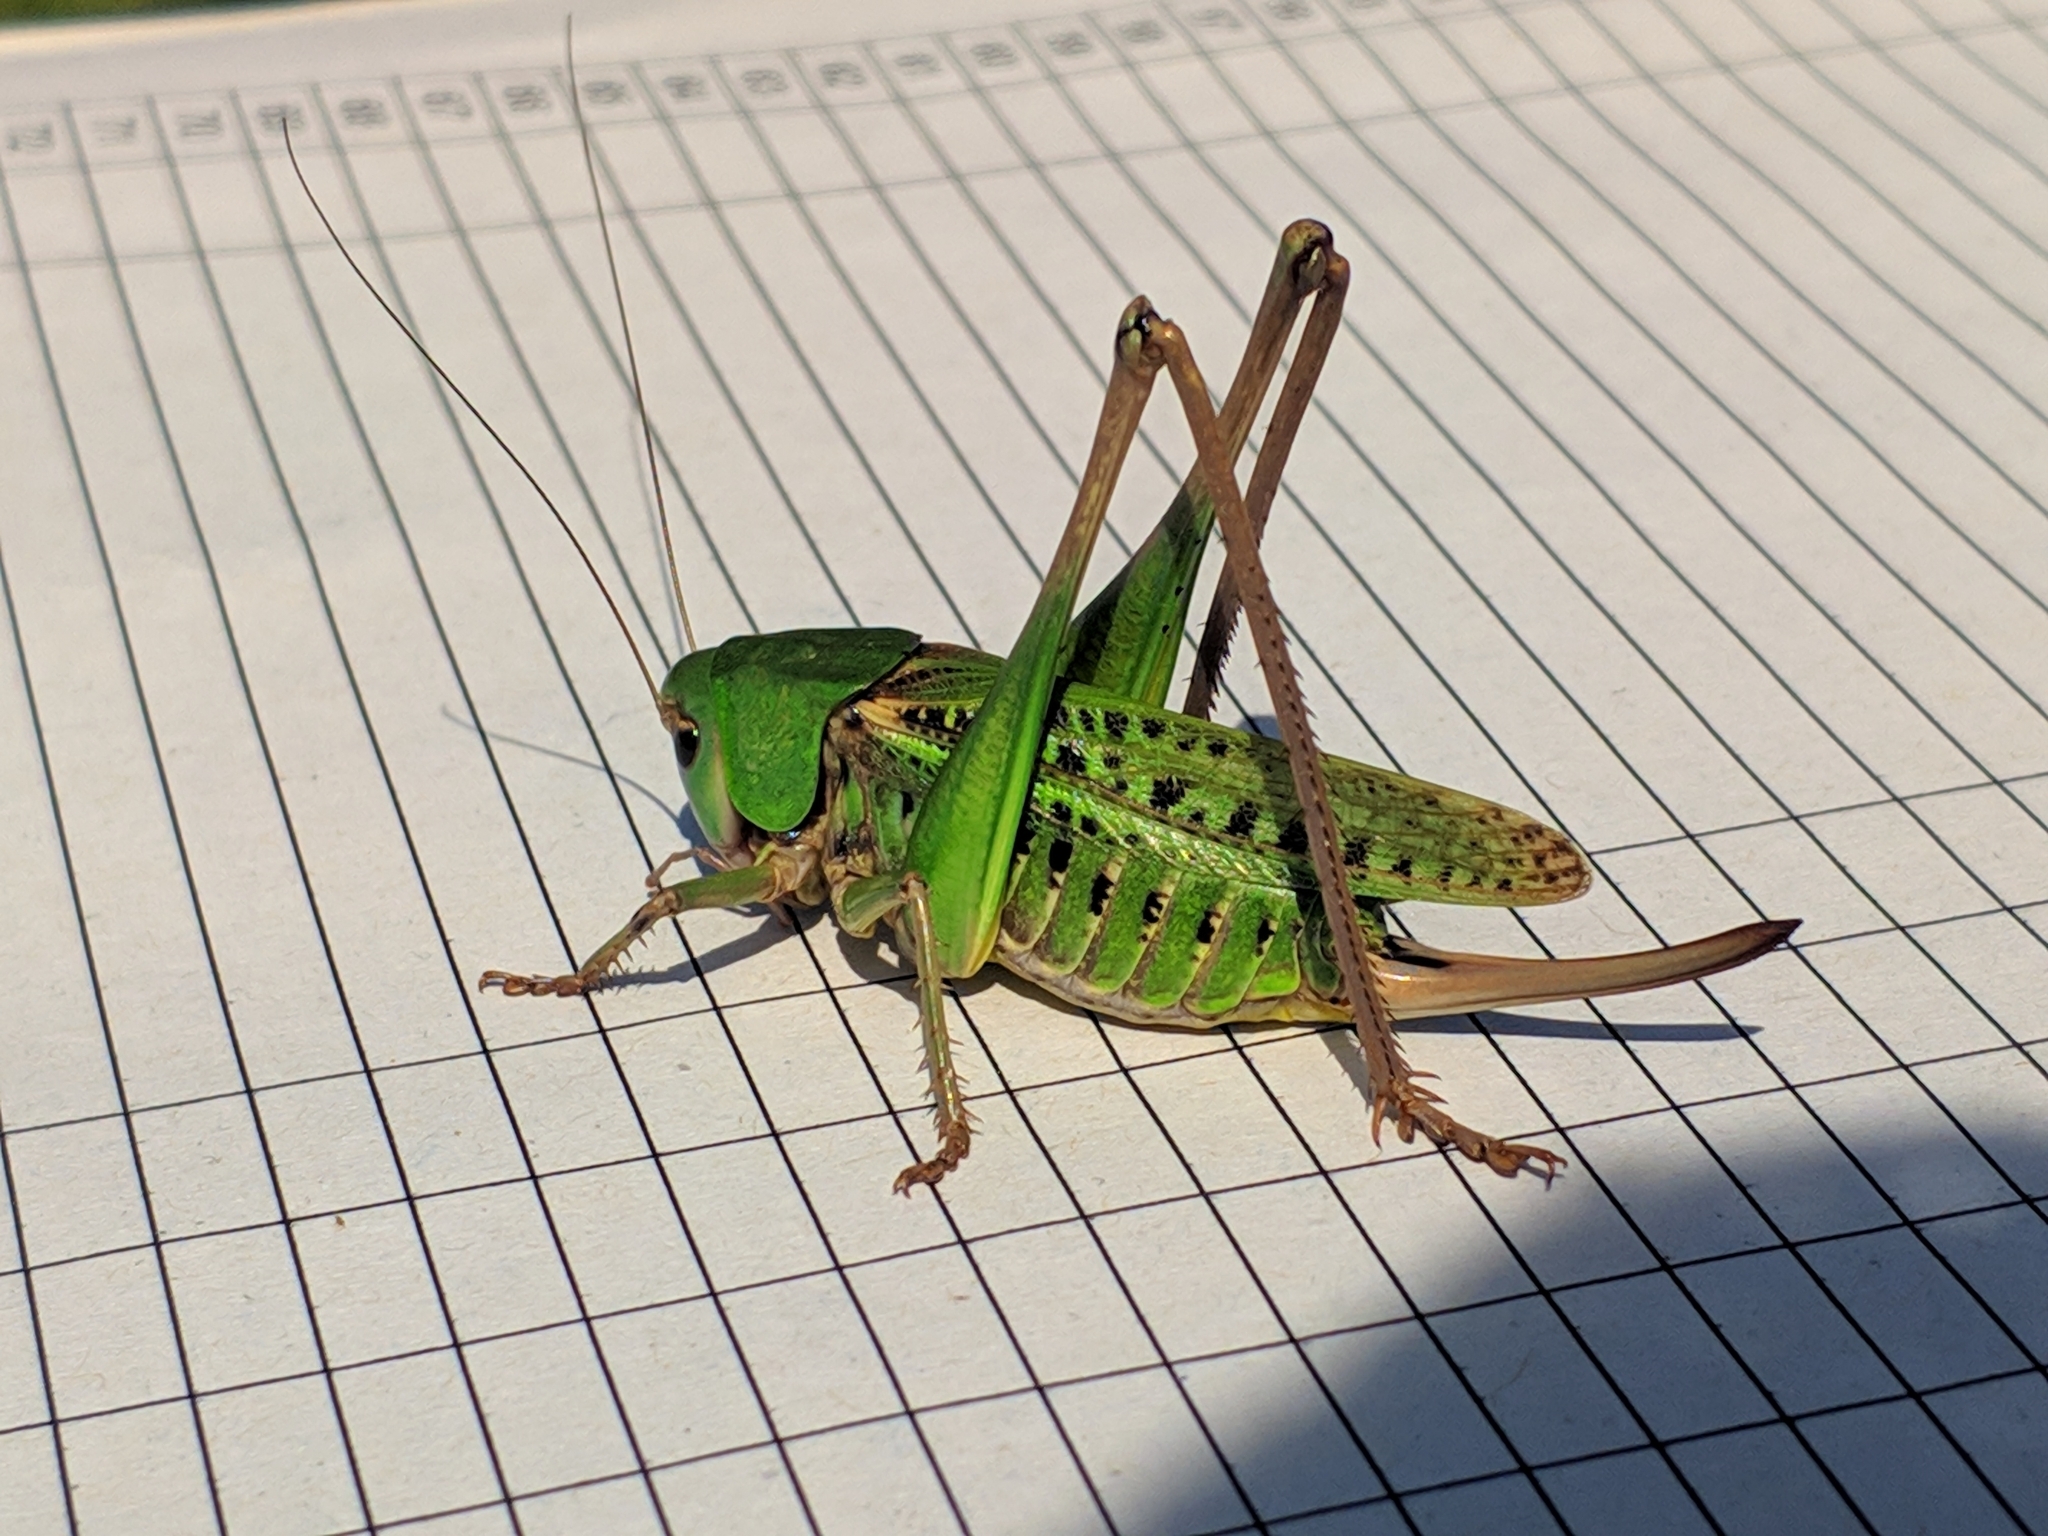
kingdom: Animalia
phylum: Arthropoda
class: Insecta
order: Orthoptera
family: Tettigoniidae
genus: Decticus
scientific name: Decticus verrucivorus
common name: Wart-biter
